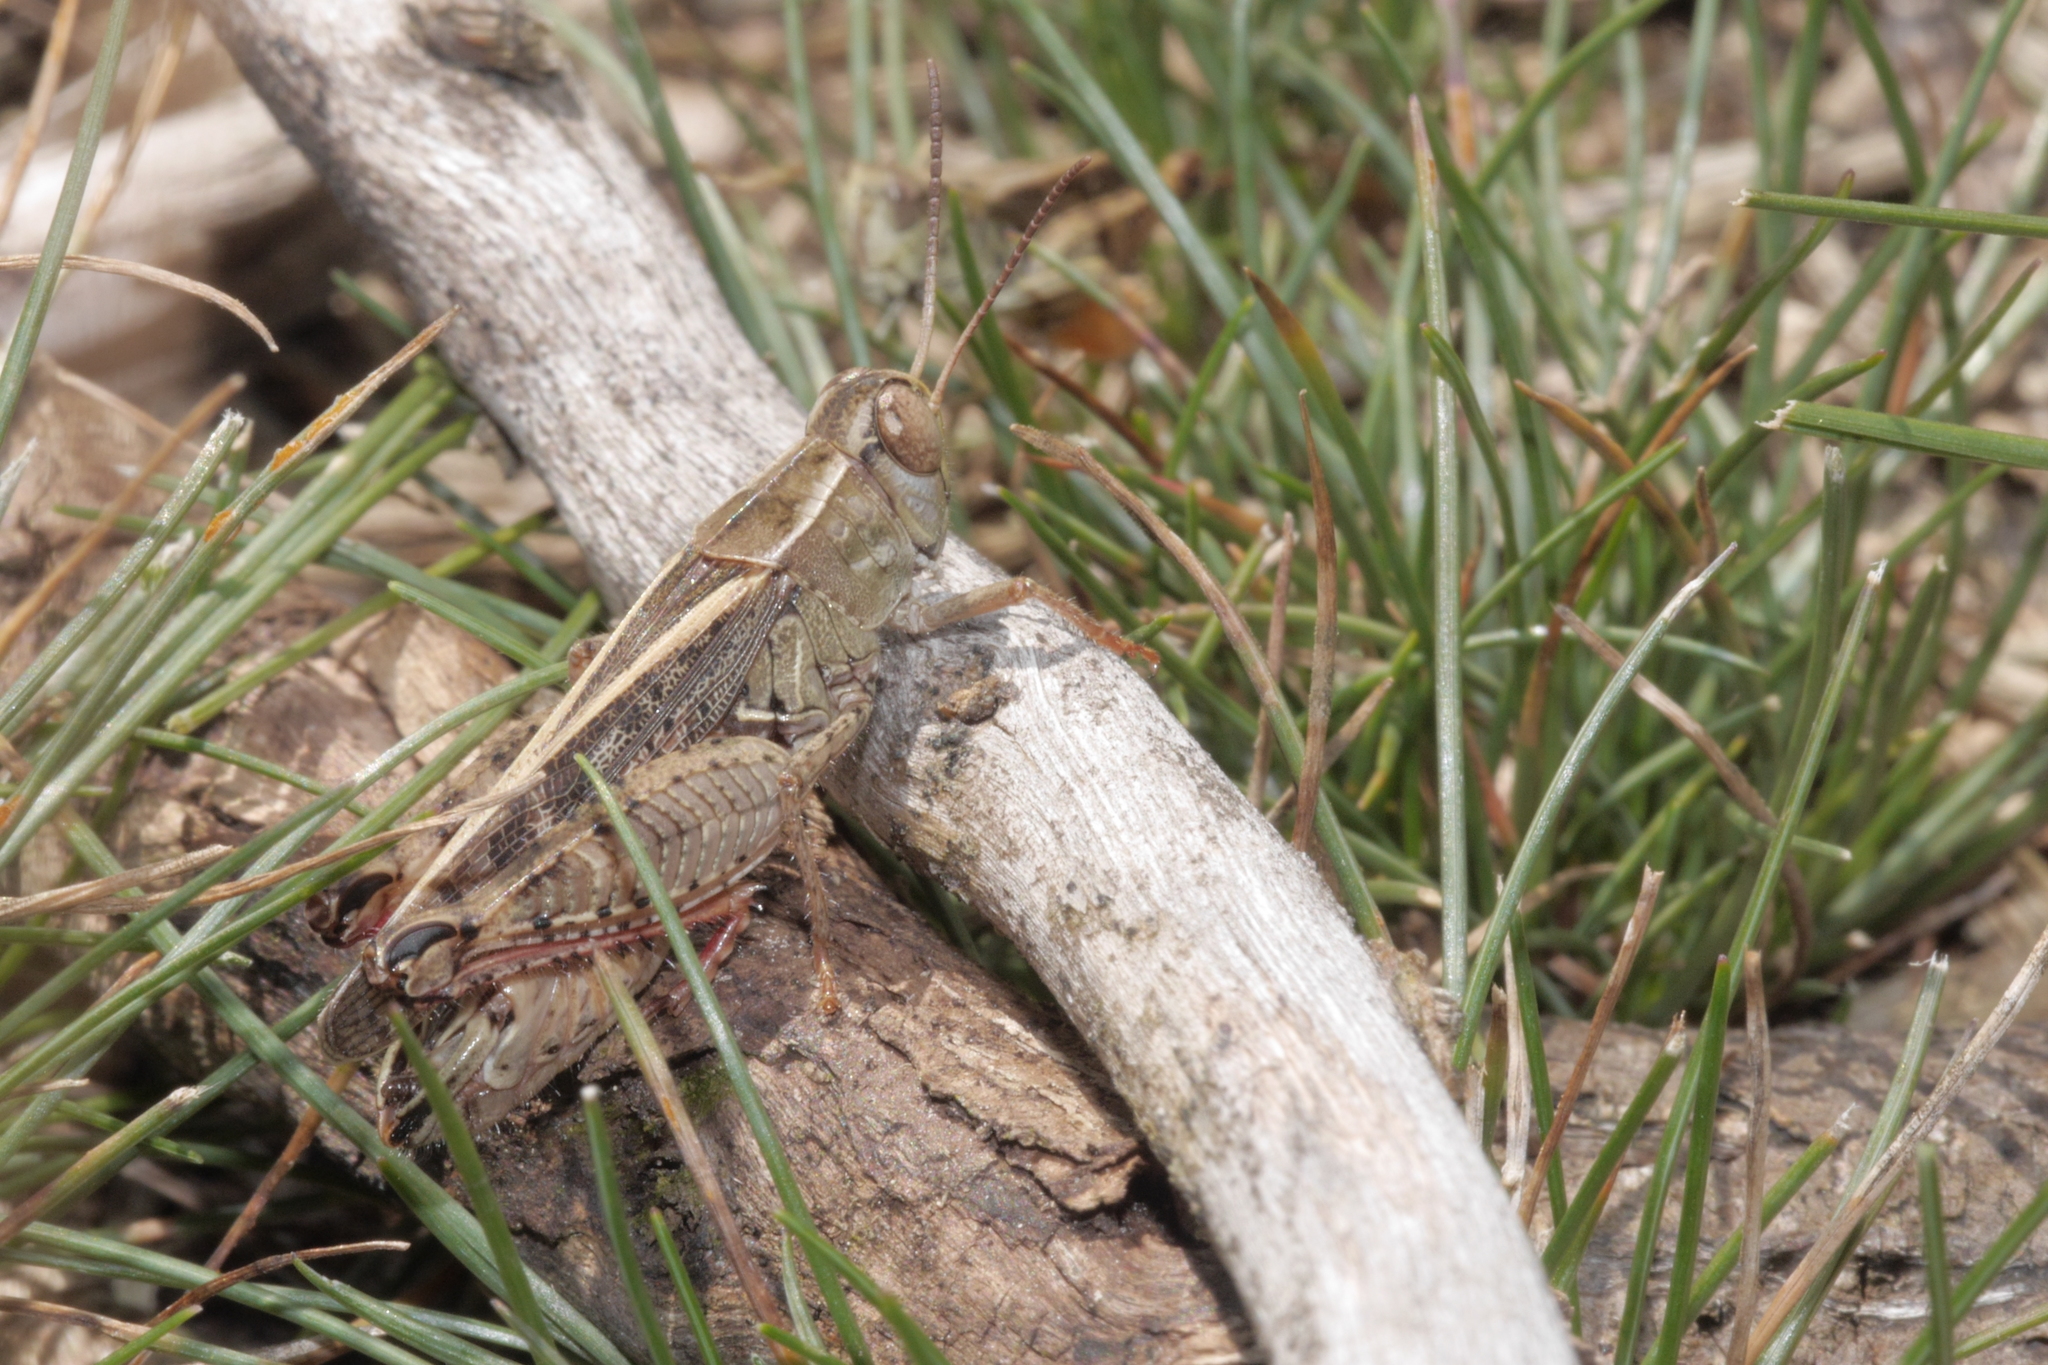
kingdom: Animalia
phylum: Arthropoda
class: Insecta
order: Orthoptera
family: Acrididae
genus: Calliptamus
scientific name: Calliptamus italicus
